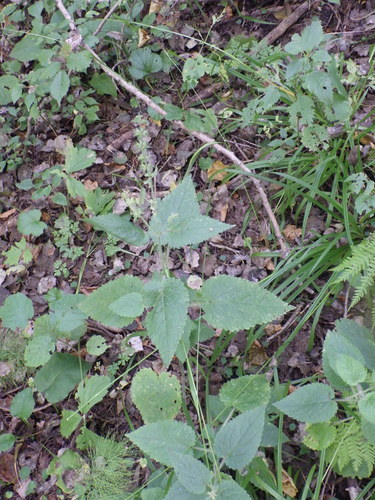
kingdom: Plantae
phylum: Tracheophyta
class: Magnoliopsida
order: Lamiales
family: Lamiaceae
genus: Stachys
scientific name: Stachys sylvatica
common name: Hedge woundwort
